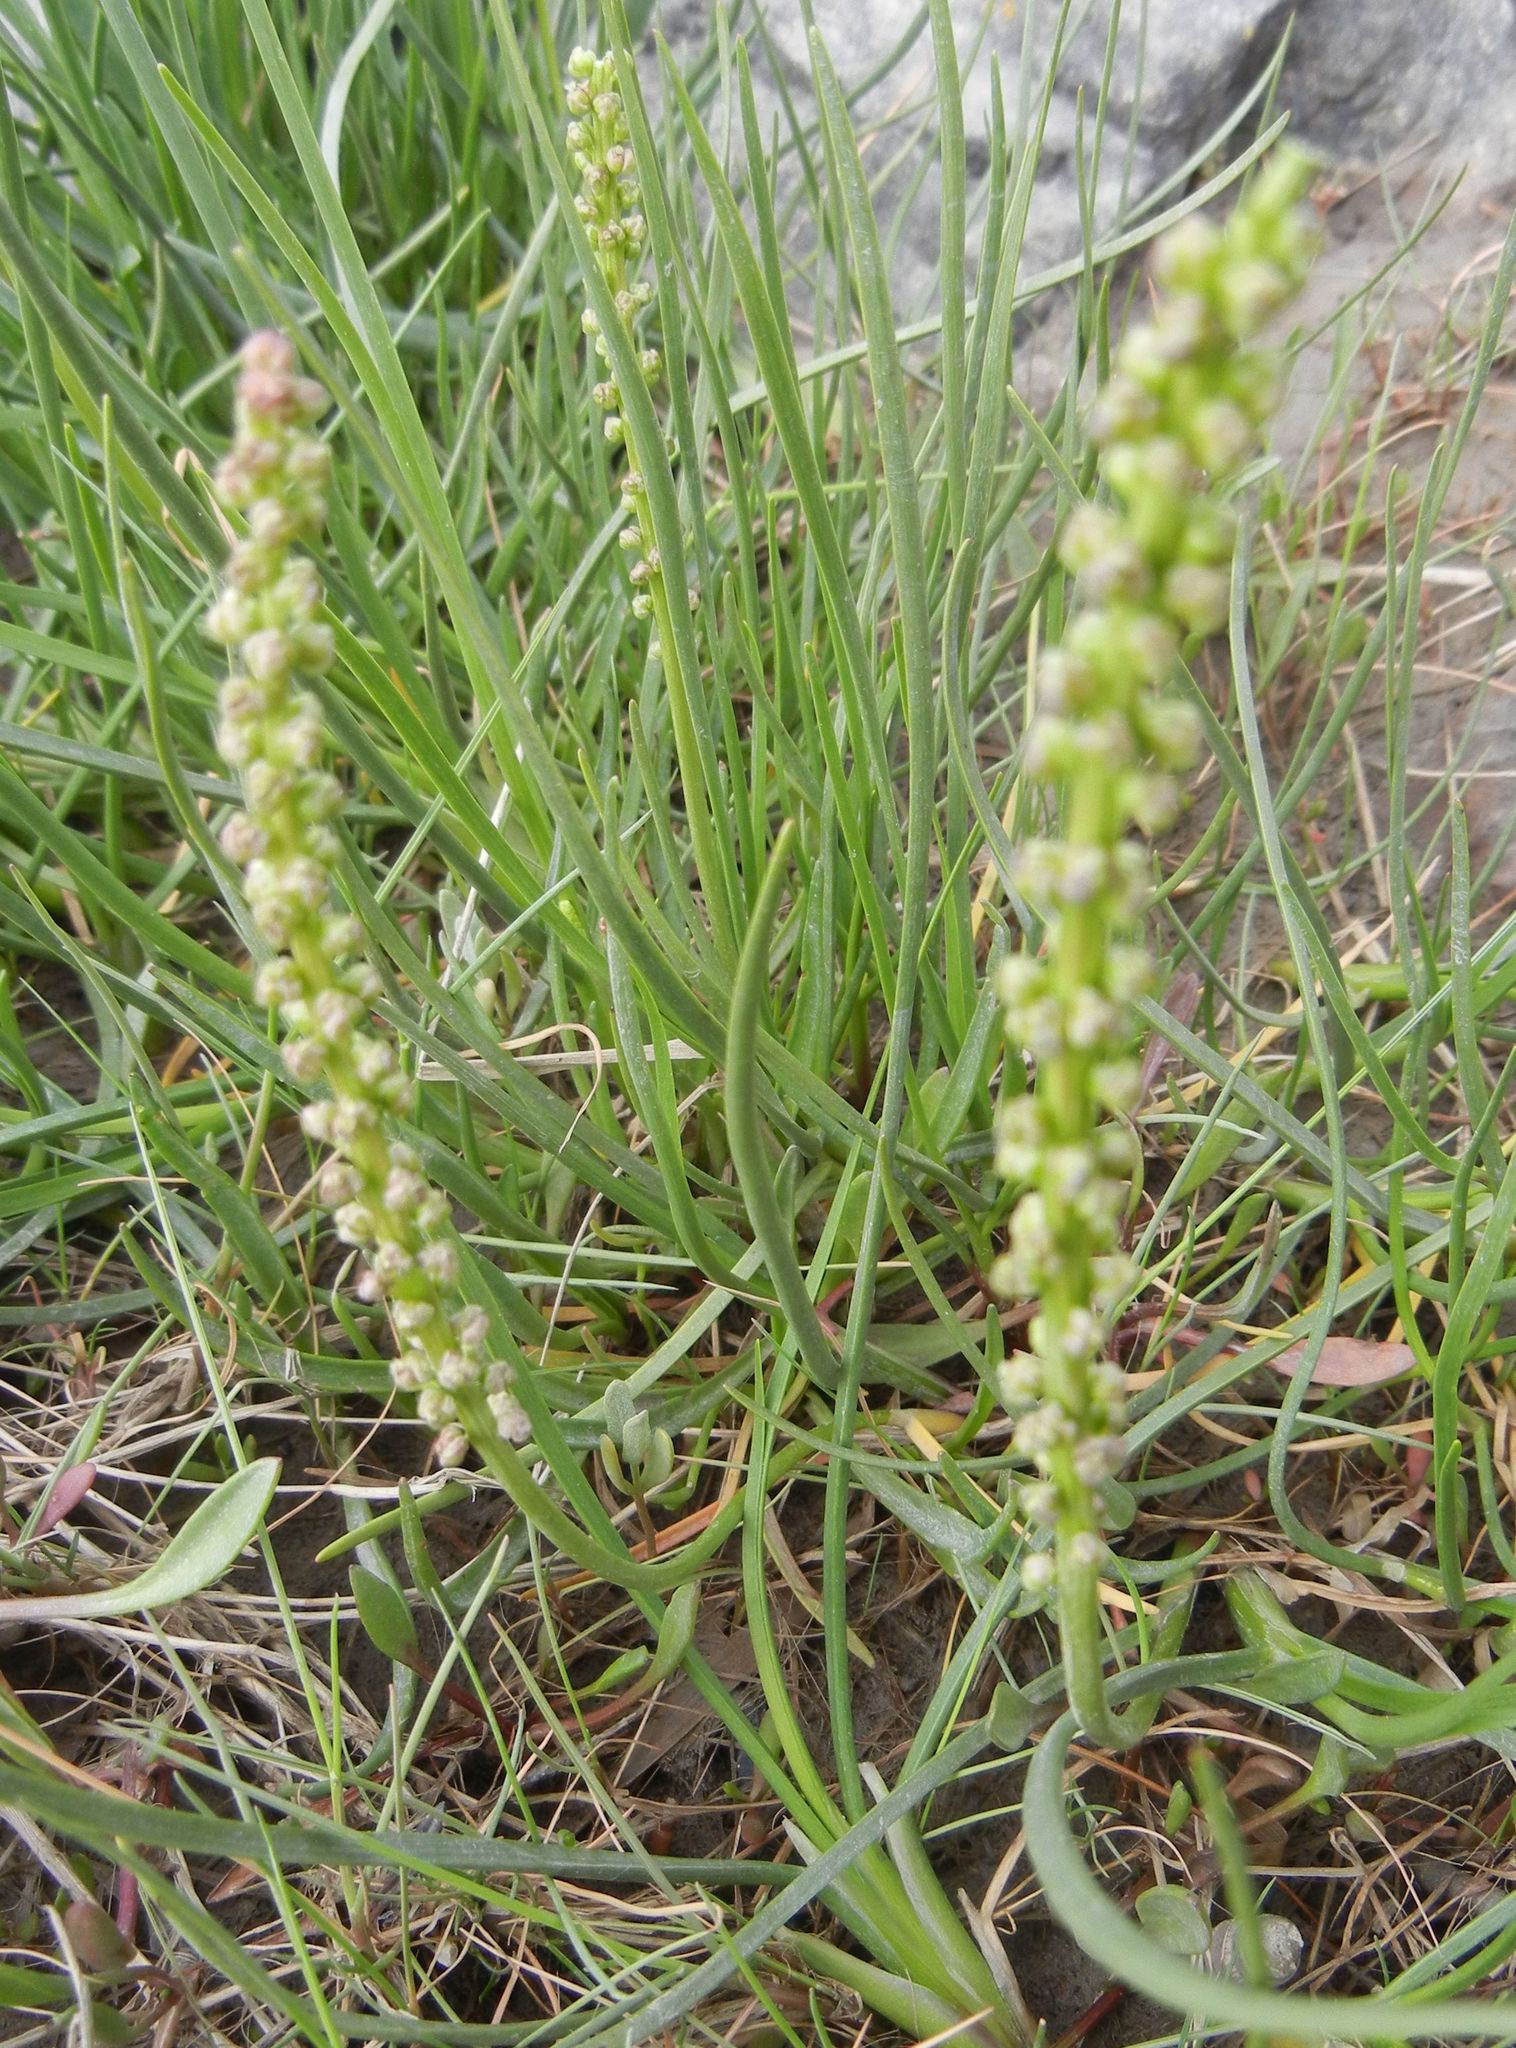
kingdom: Plantae
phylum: Tracheophyta
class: Liliopsida
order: Alismatales
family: Juncaginaceae
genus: Triglochin
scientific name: Triglochin maritima
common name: Sea arrowgrass
